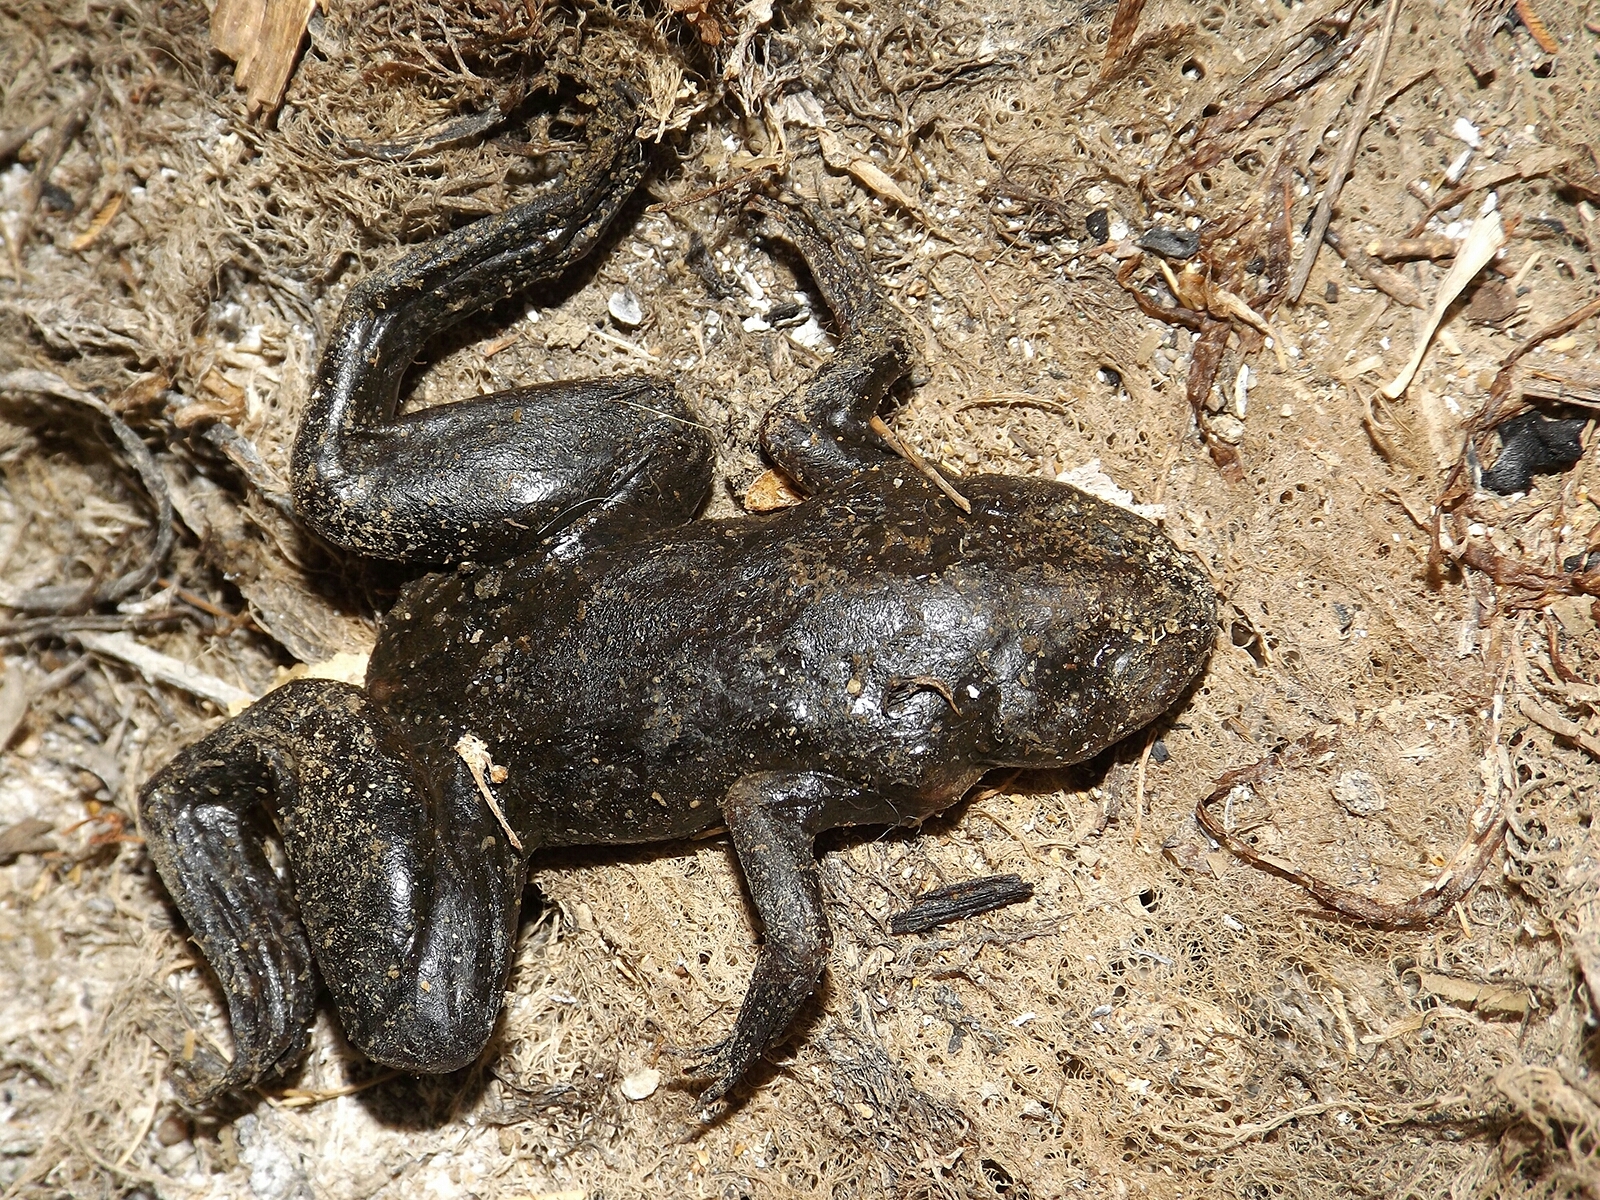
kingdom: Animalia
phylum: Chordata
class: Amphibia
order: Anura
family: Pipidae
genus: Xenopus
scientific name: Xenopus laevis
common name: African clawed frog
